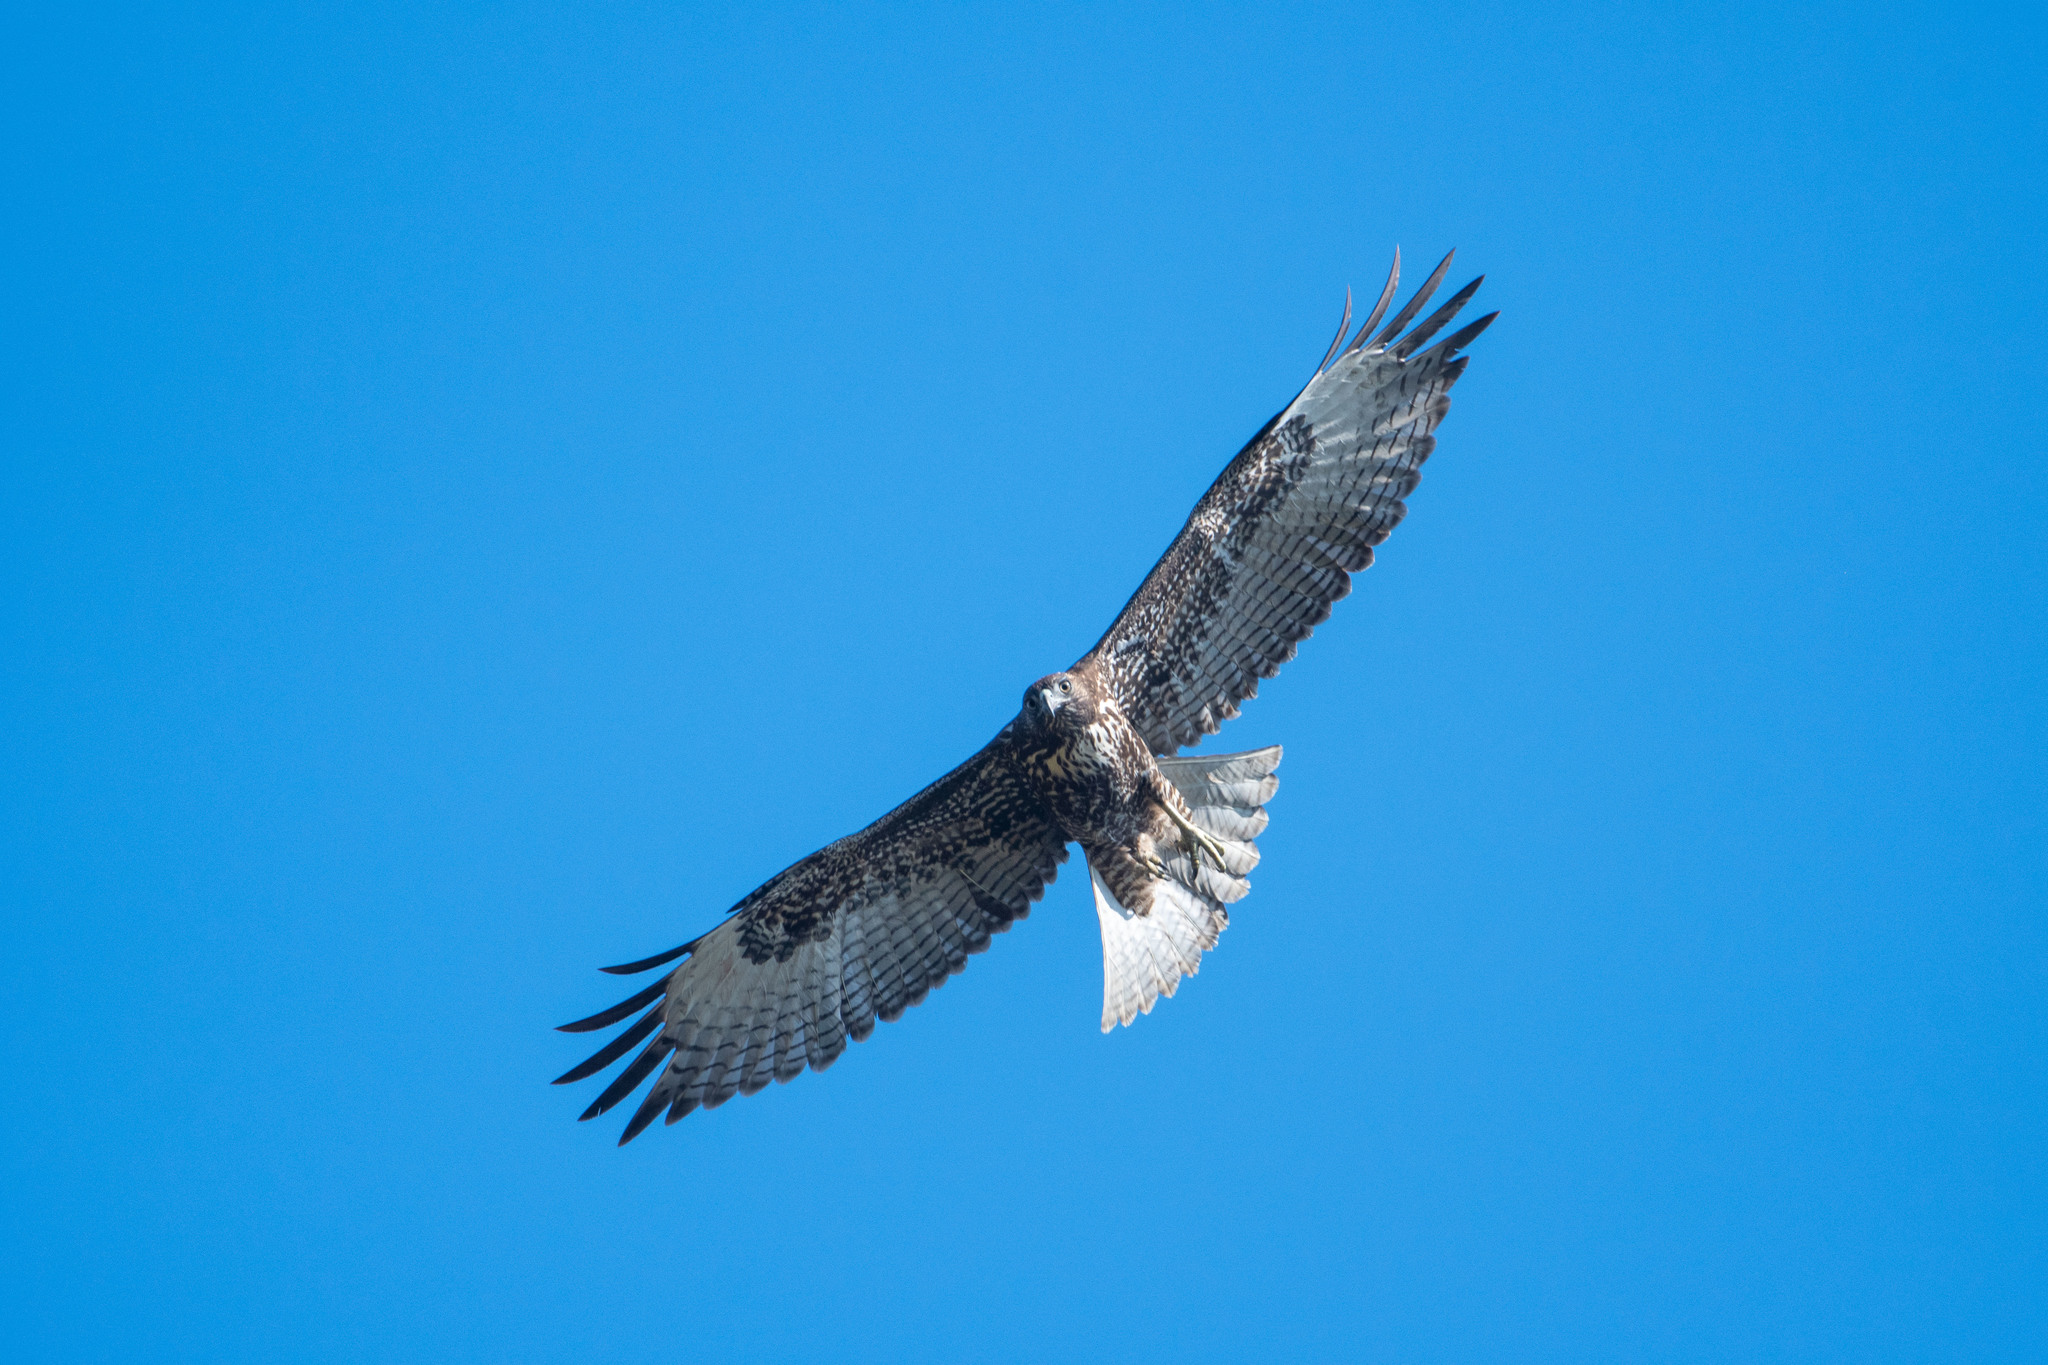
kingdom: Animalia
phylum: Chordata
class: Aves
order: Accipitriformes
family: Accipitridae
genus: Buteo
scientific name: Buteo jamaicensis
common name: Red-tailed hawk
